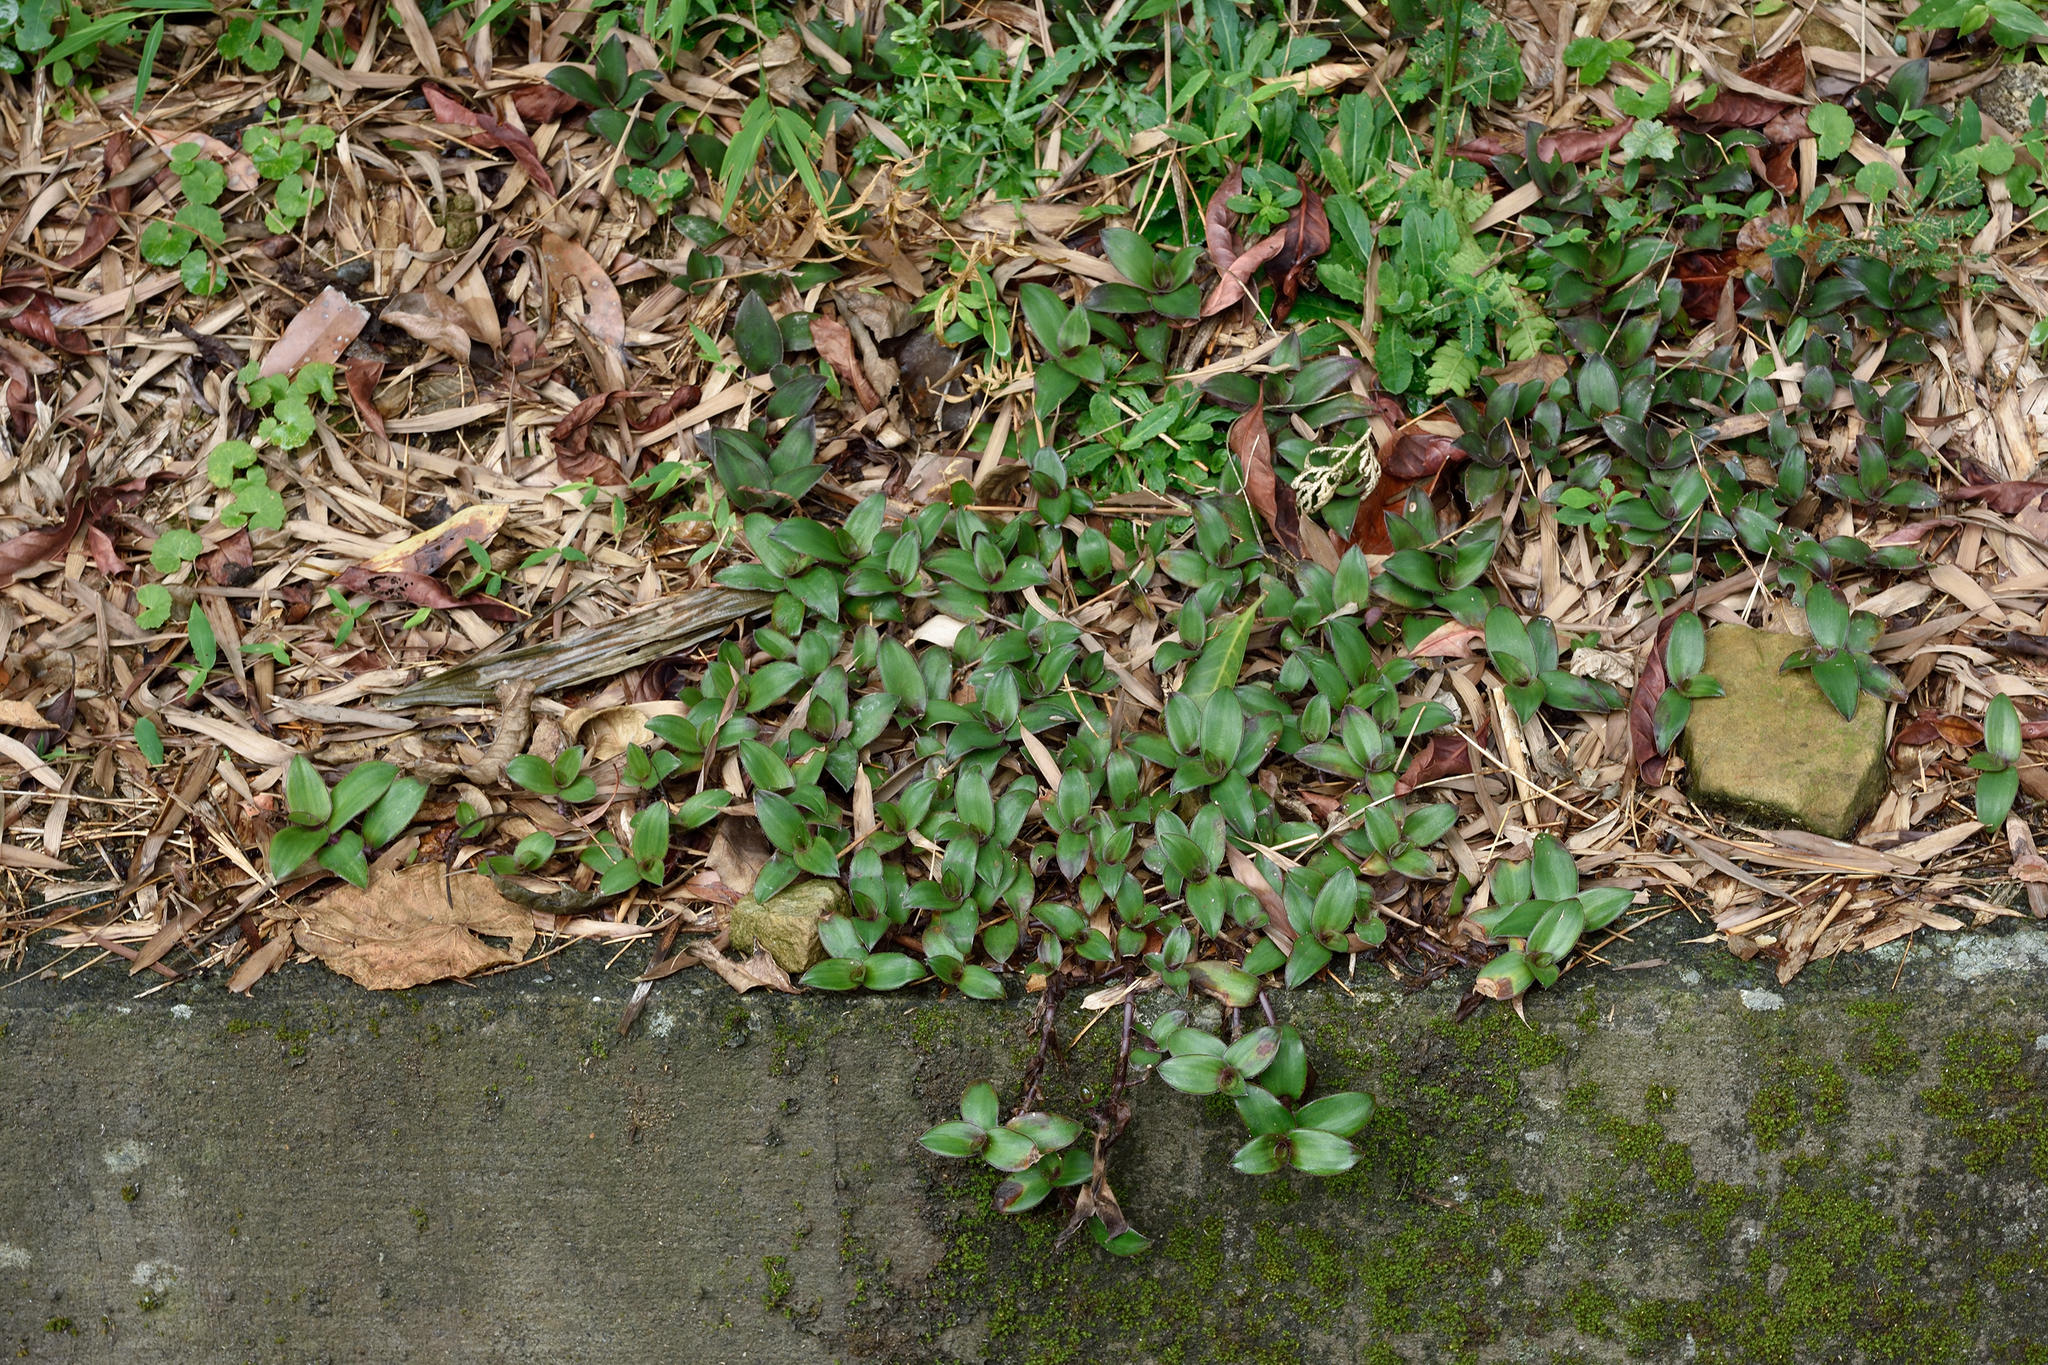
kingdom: Plantae
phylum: Tracheophyta
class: Liliopsida
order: Commelinales
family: Commelinaceae
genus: Cyanotis
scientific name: Cyanotis ciliata
